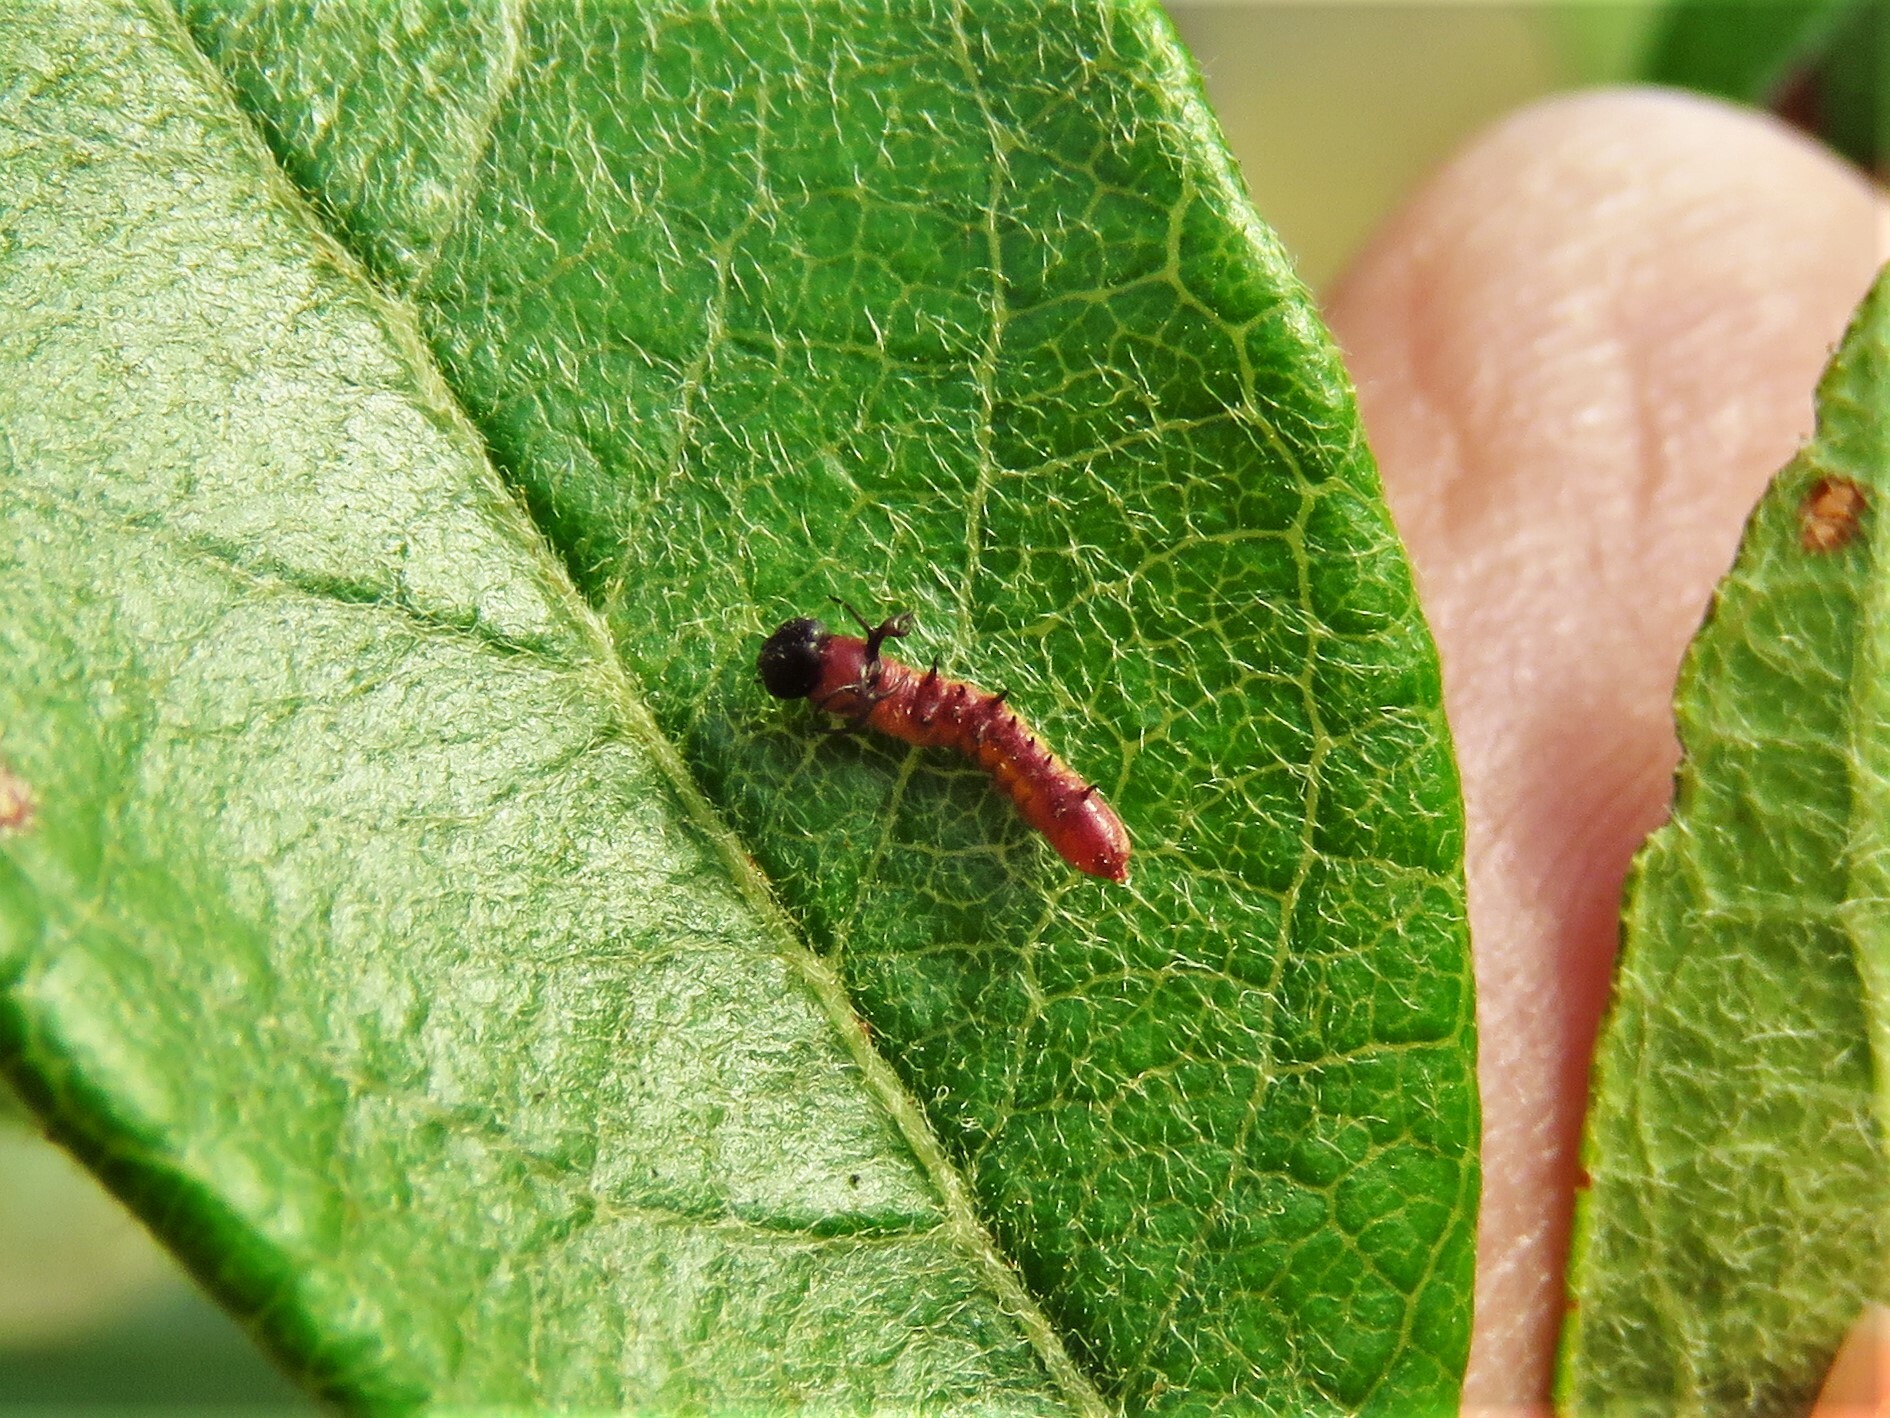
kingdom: Animalia
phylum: Arthropoda
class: Insecta
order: Lepidoptera
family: Notodontidae
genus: Litodonta
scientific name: Litodonta hydromeli
